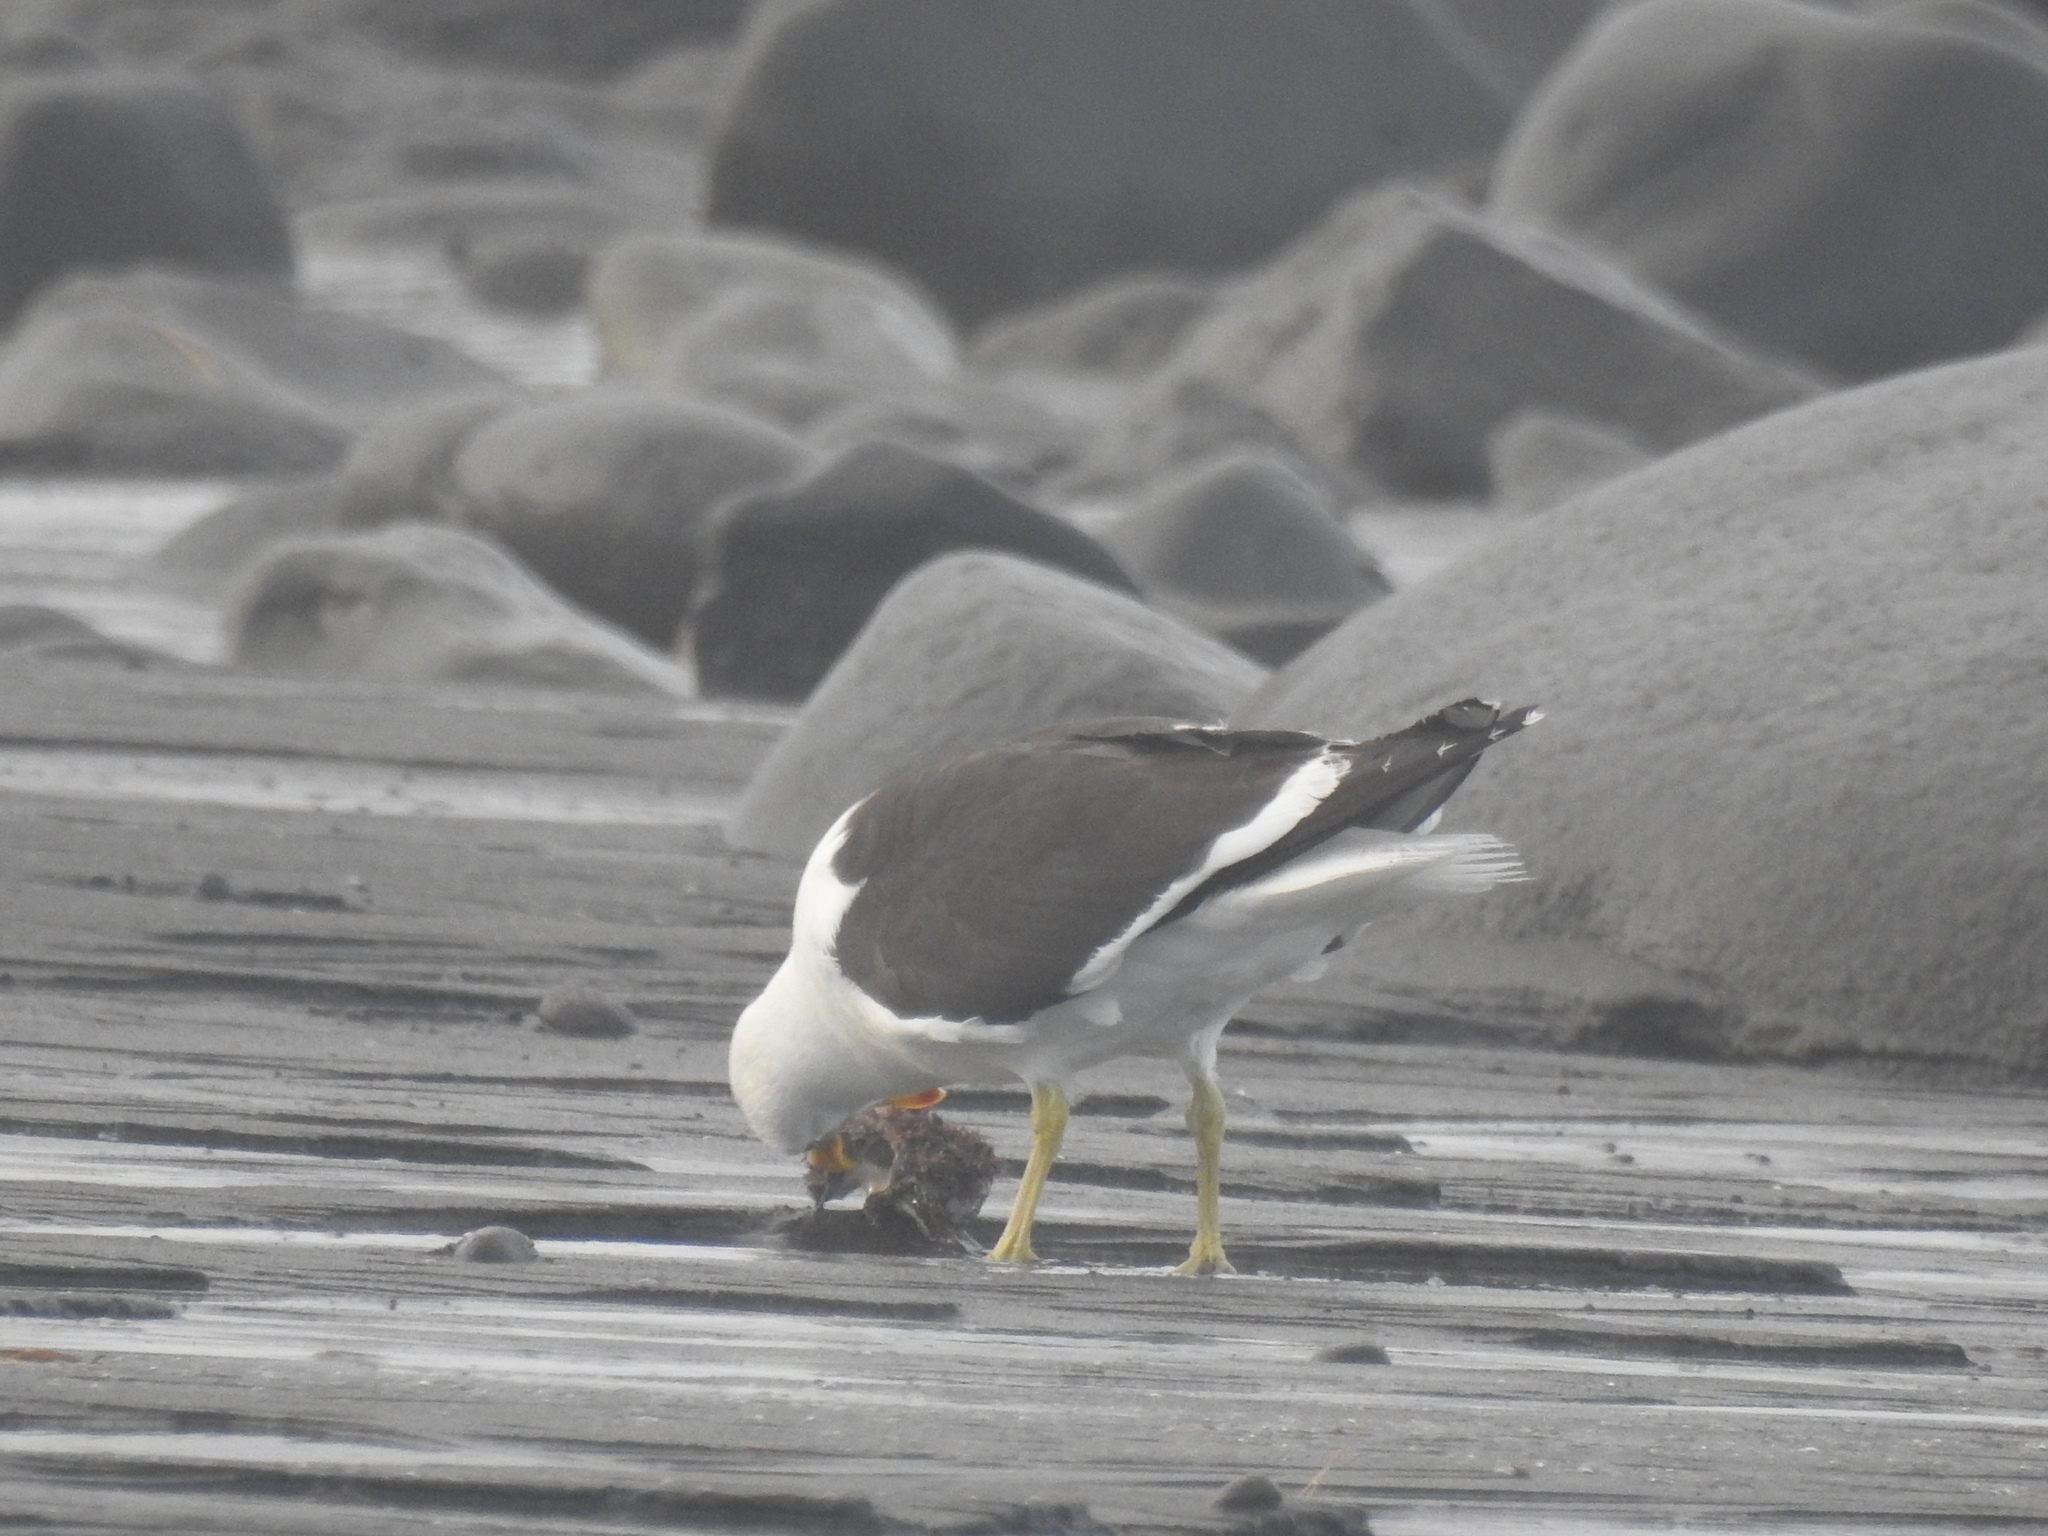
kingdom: Animalia
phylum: Chordata
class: Aves
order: Charadriiformes
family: Laridae
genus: Larus
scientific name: Larus dominicanus
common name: Kelp gull
